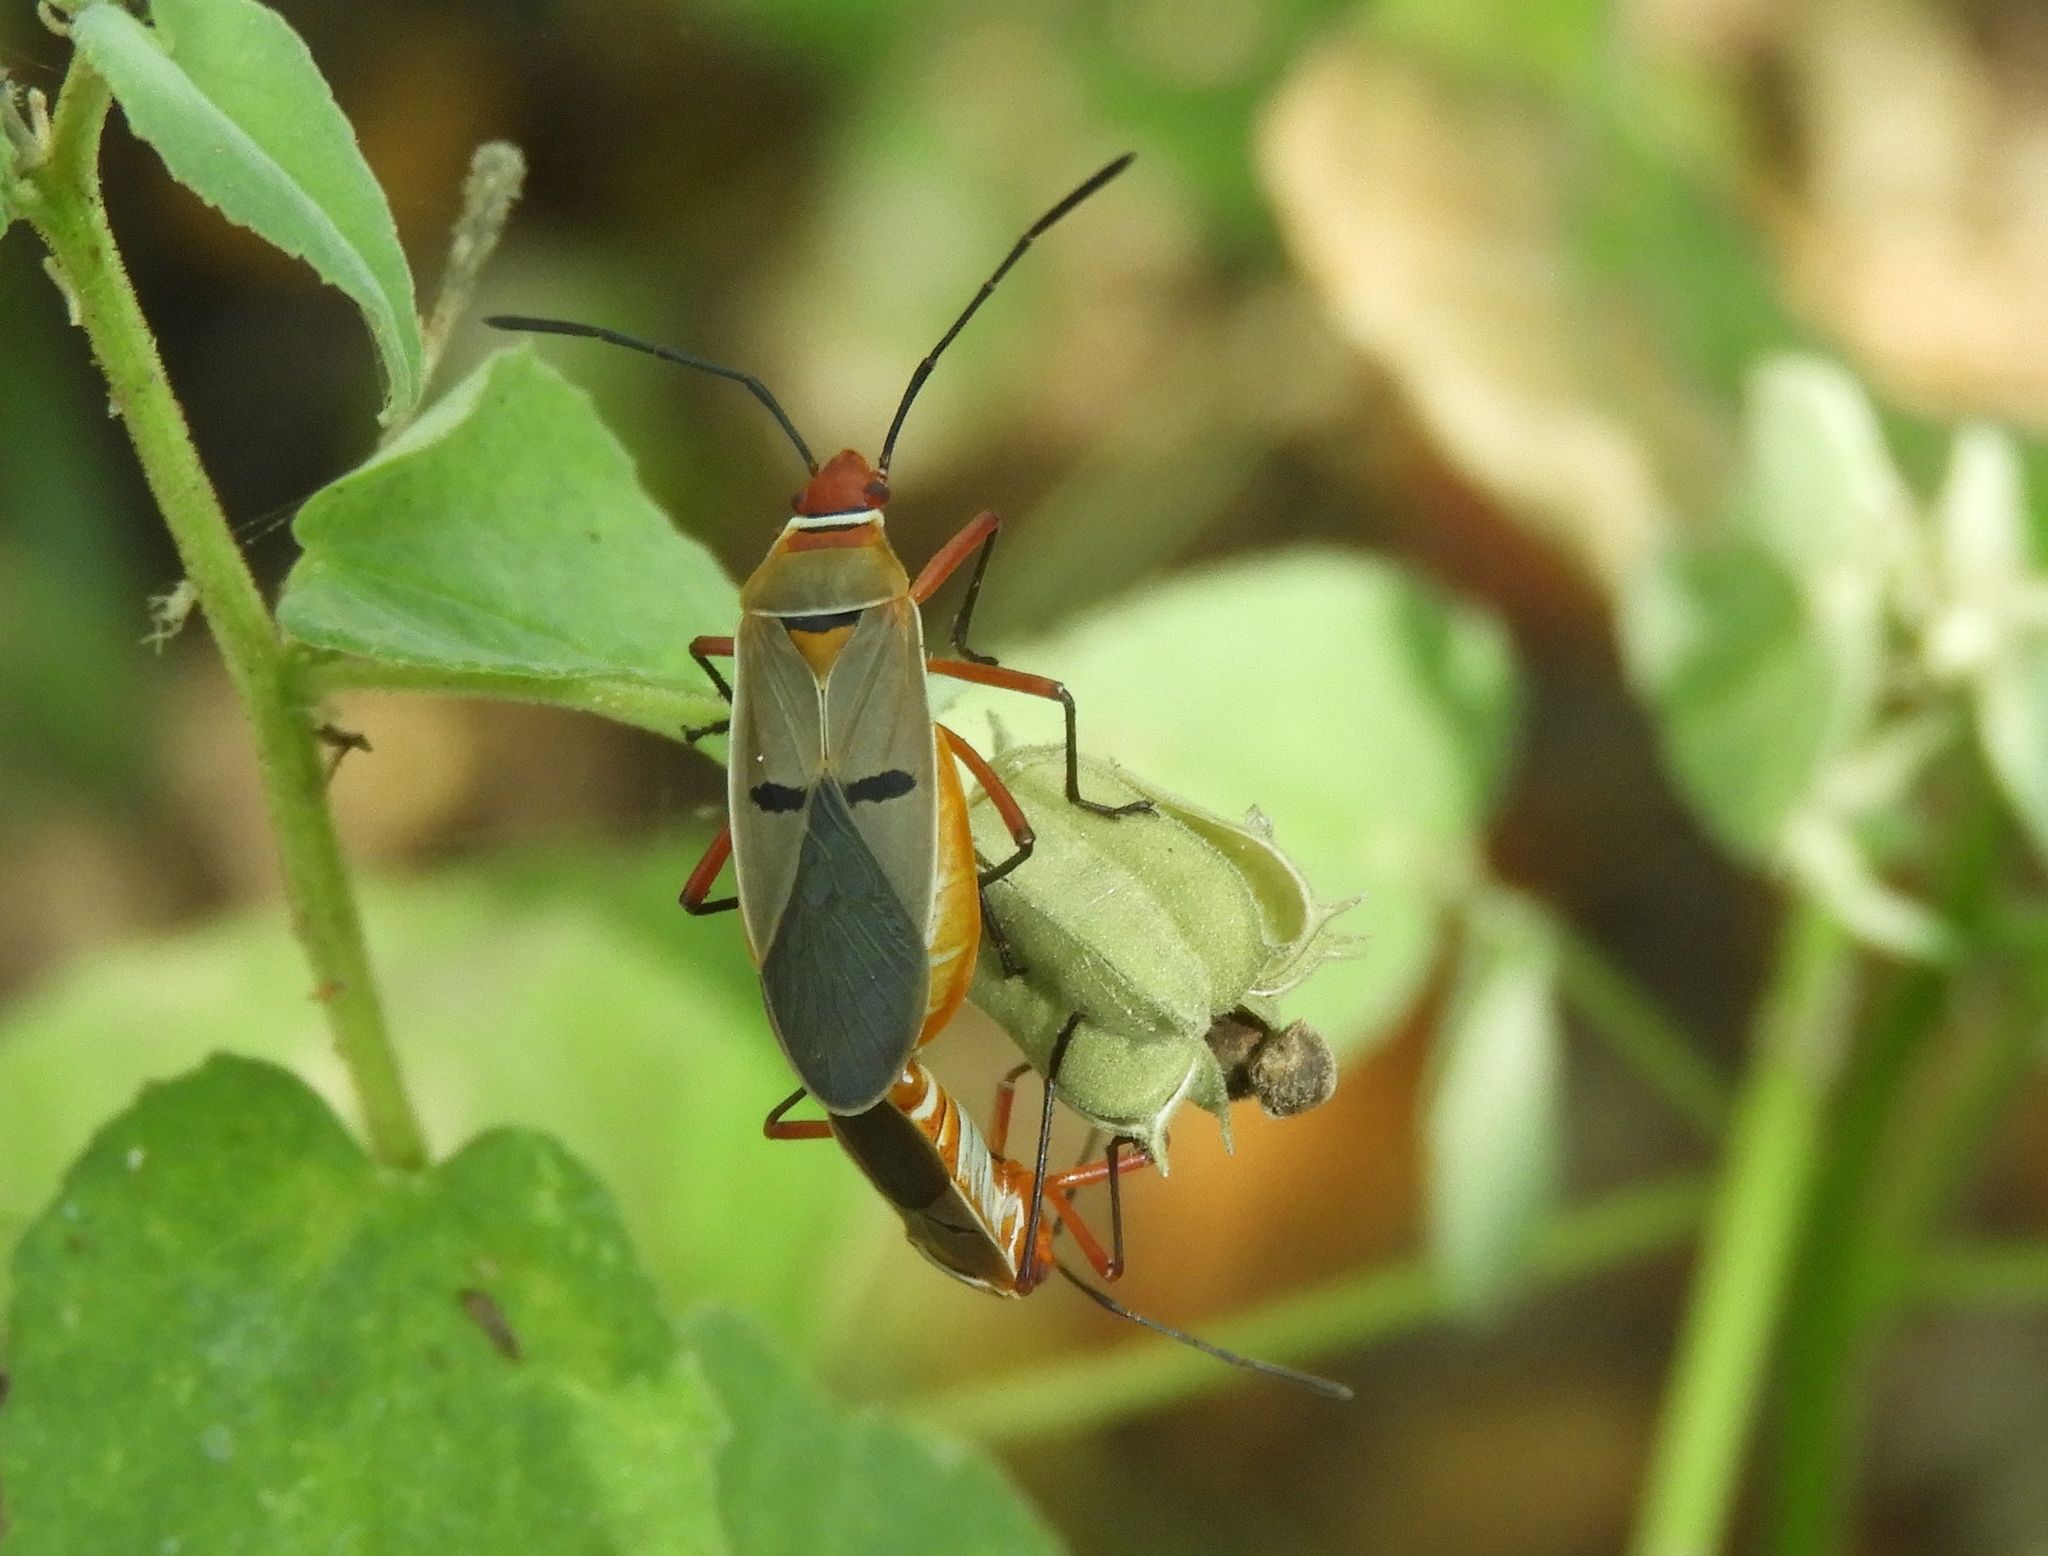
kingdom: Animalia
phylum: Arthropoda
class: Insecta
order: Hemiptera
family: Pyrrhocoridae
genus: Dysdercus
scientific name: Dysdercus
